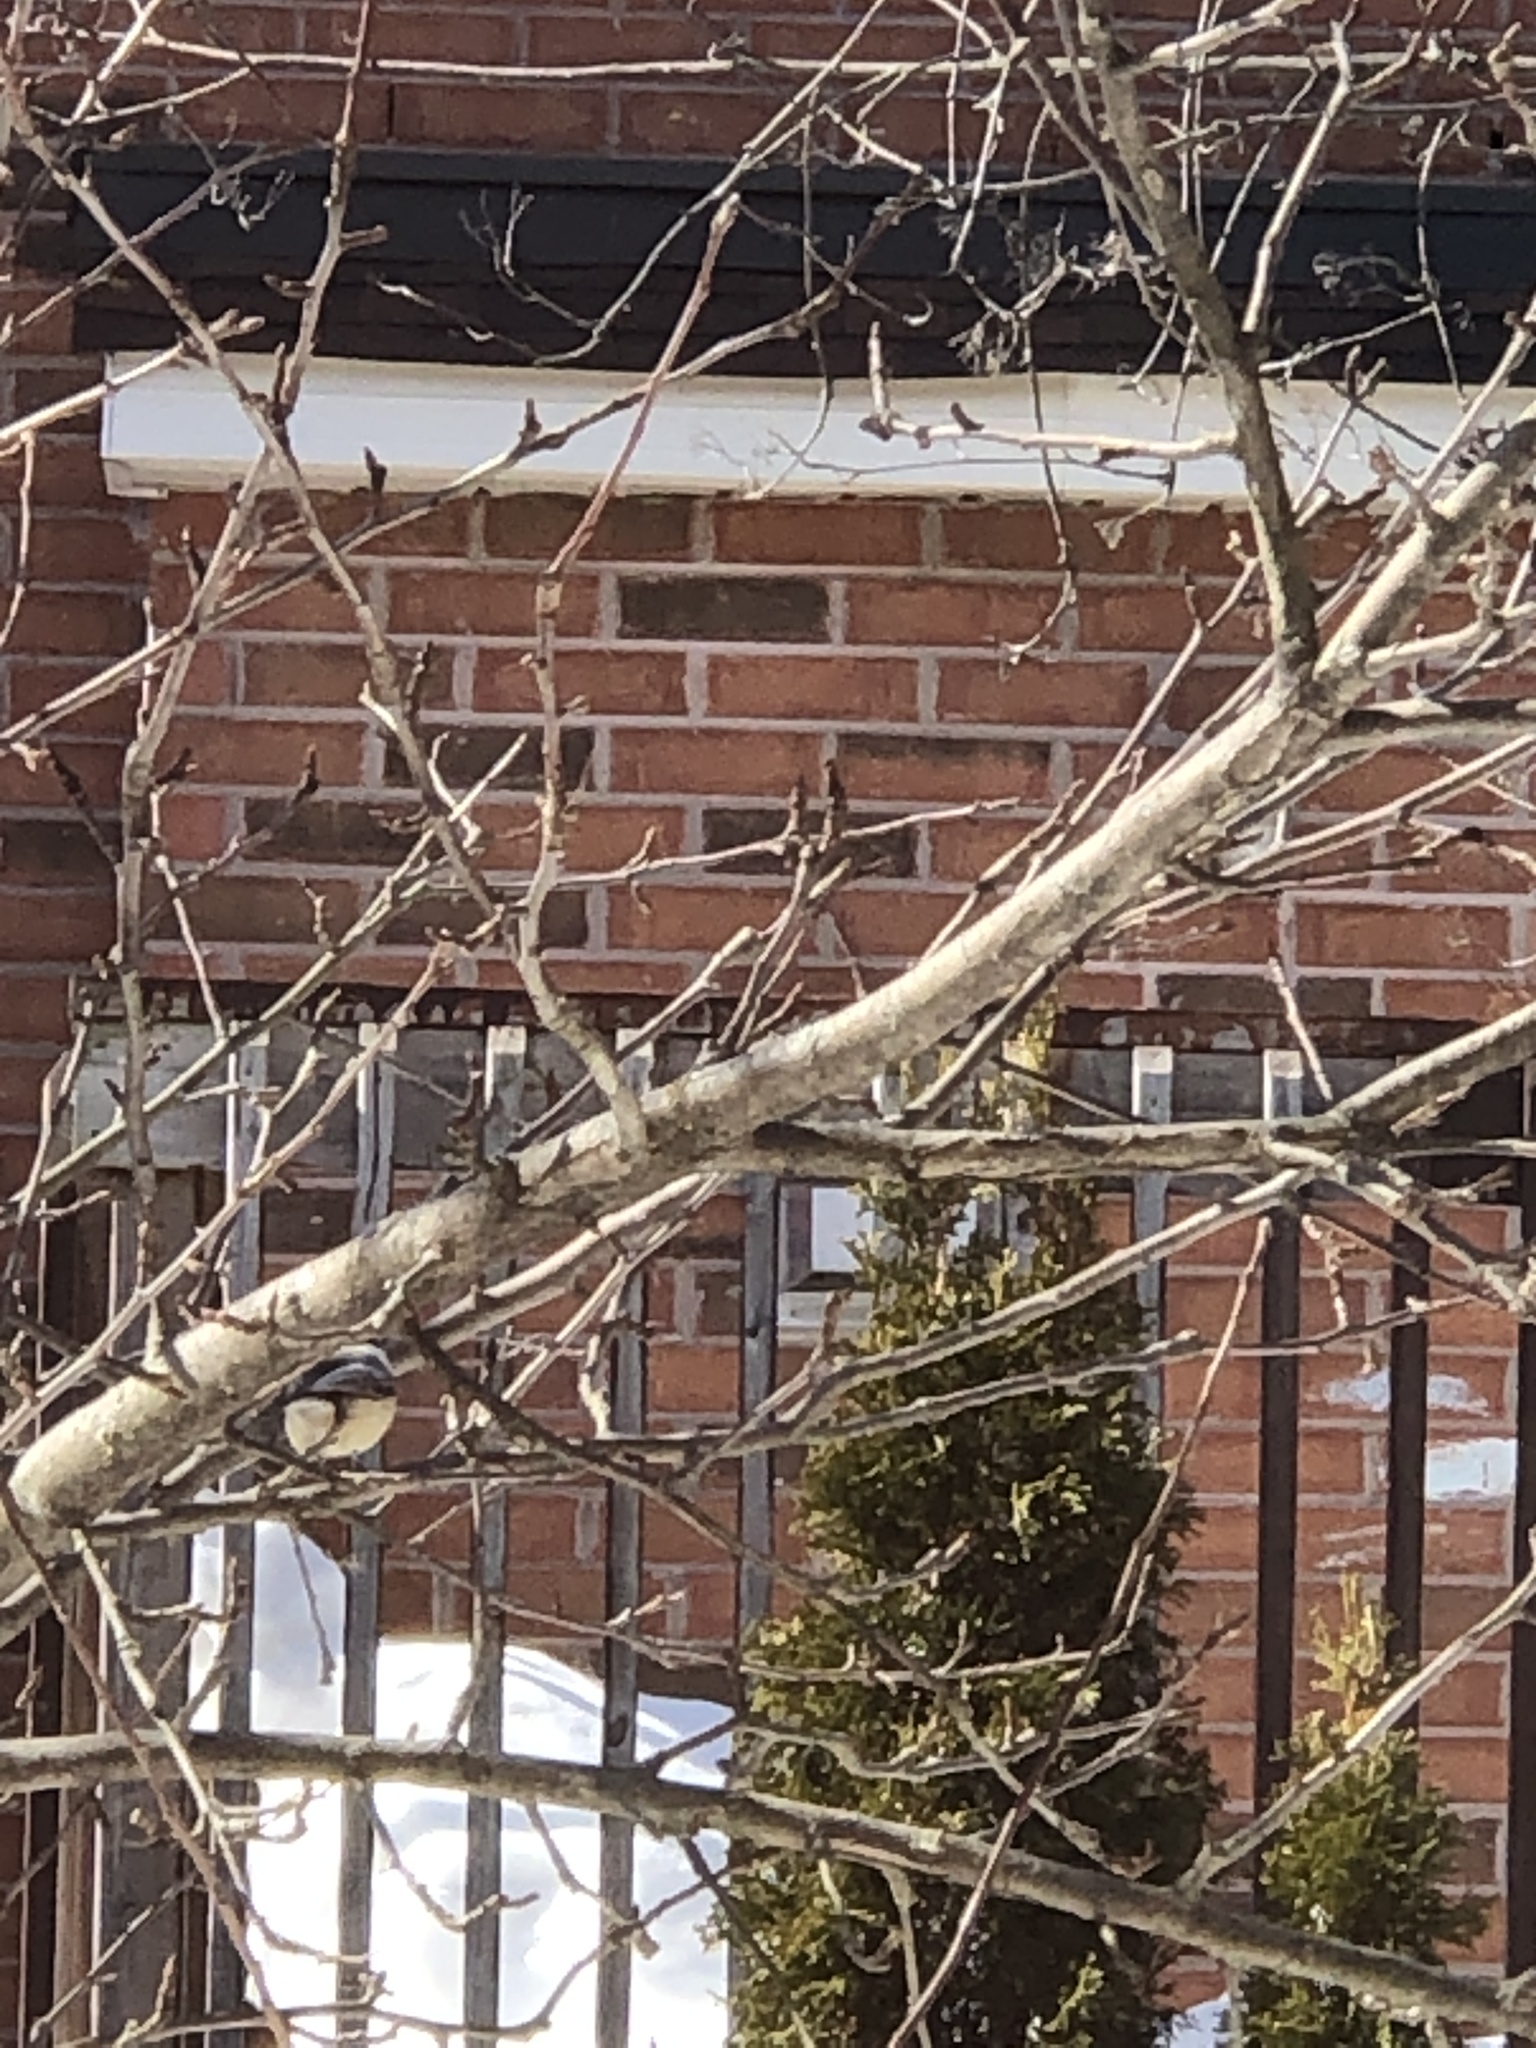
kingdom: Animalia
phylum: Chordata
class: Aves
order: Passeriformes
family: Paridae
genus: Poecile
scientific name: Poecile atricapillus
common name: Black-capped chickadee
